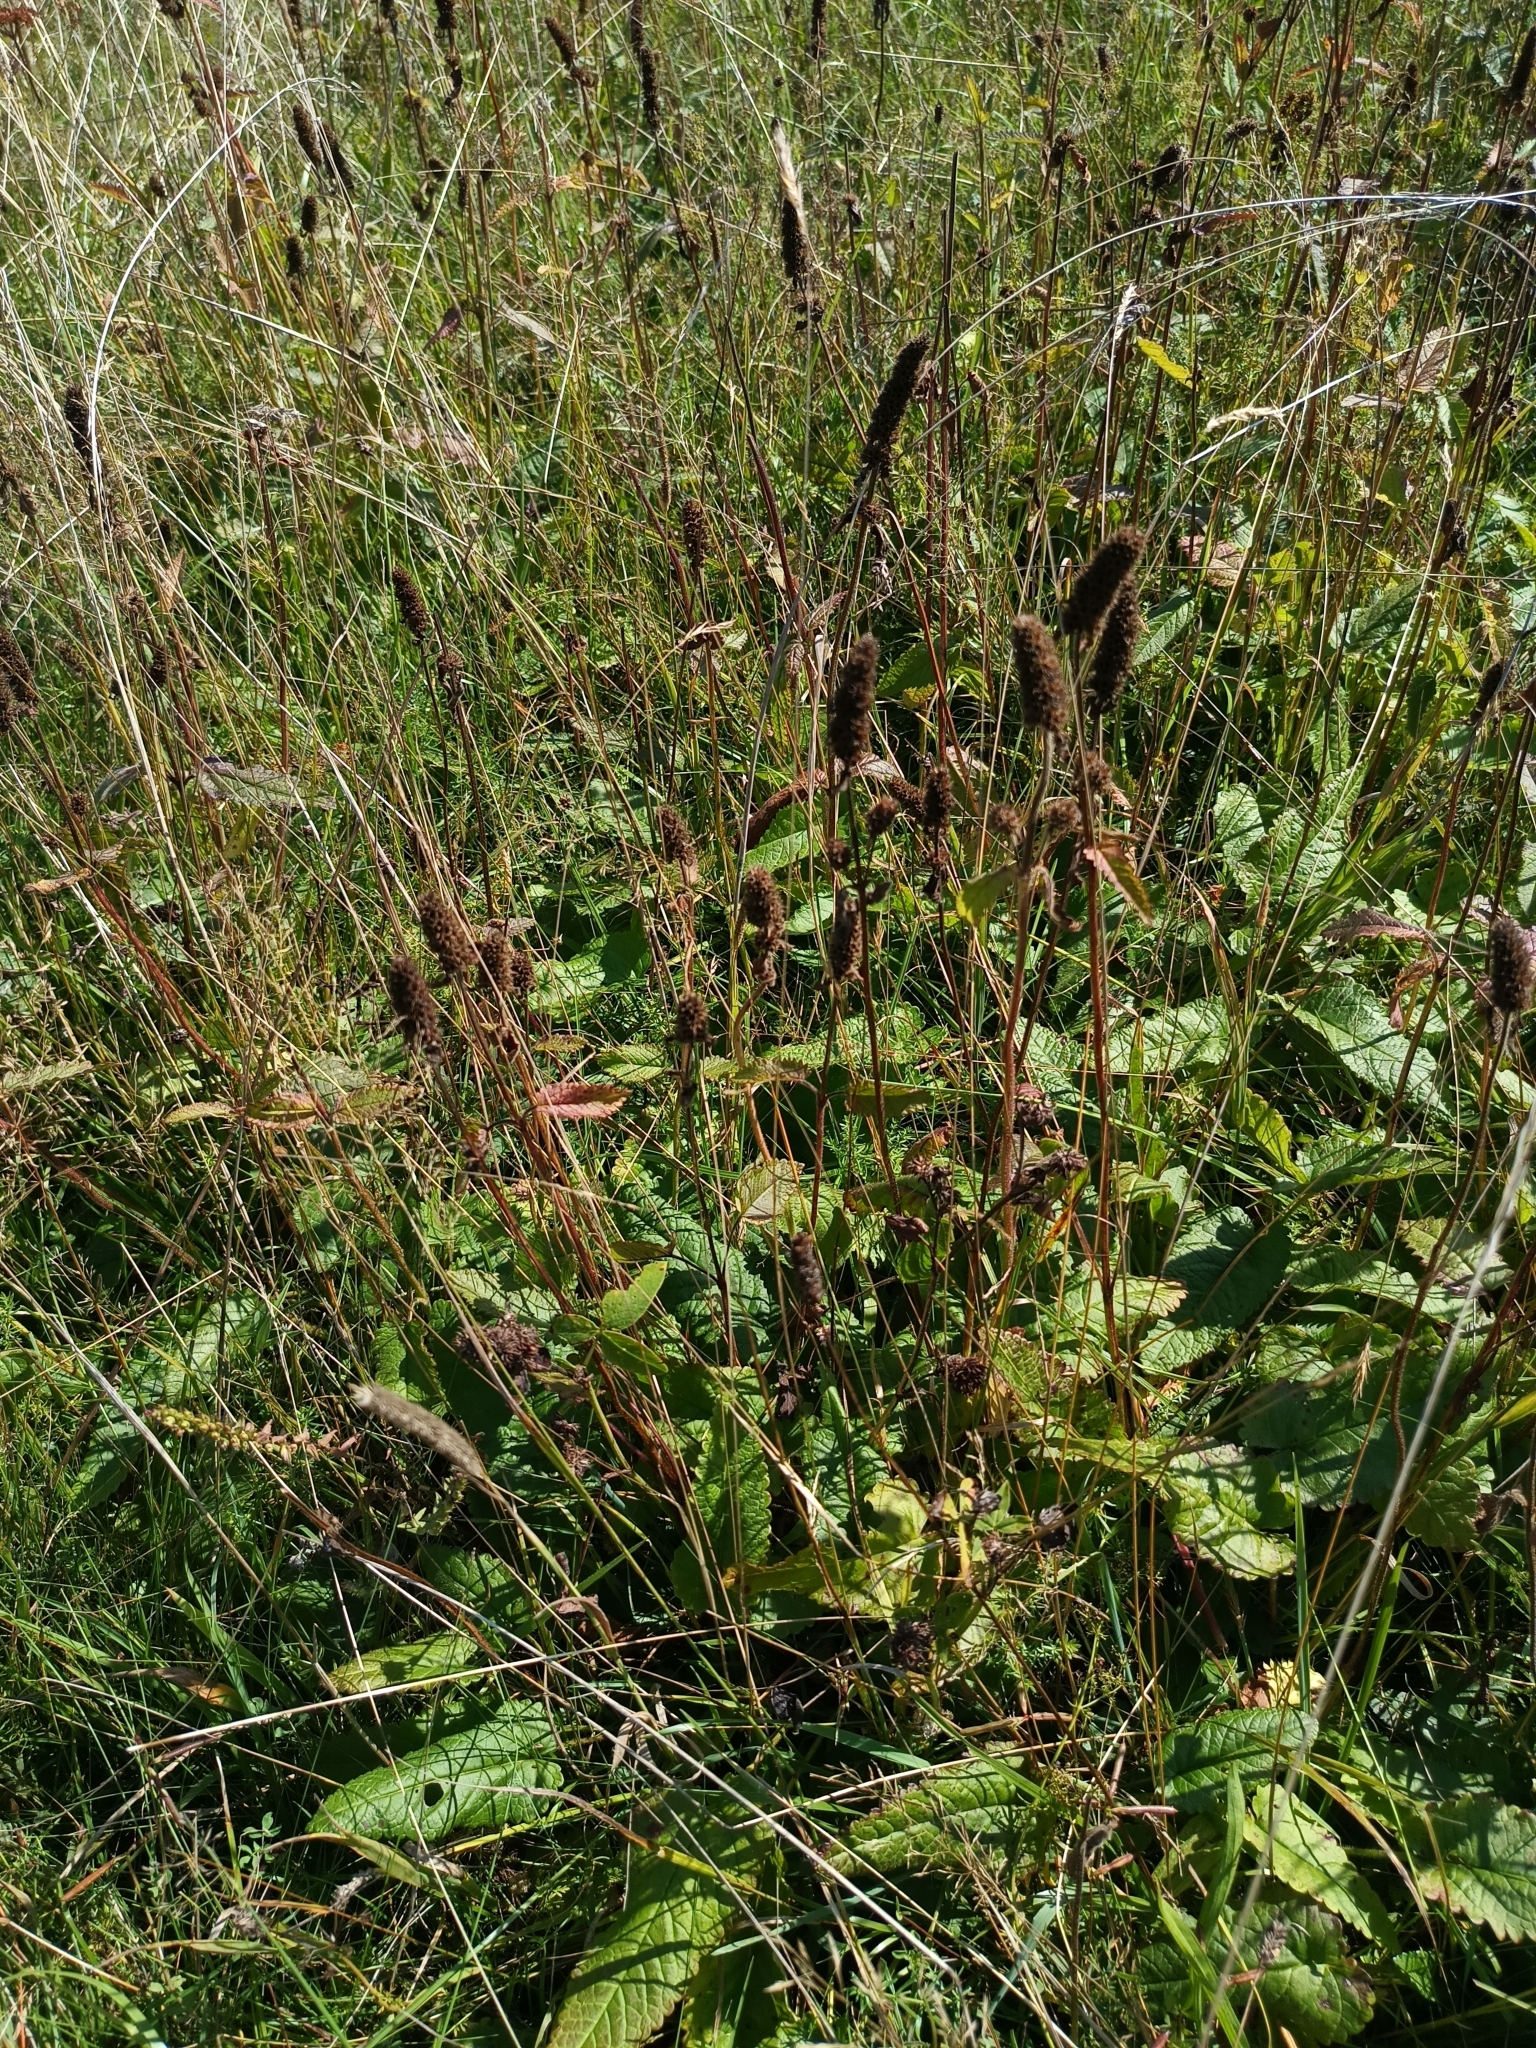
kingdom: Plantae
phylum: Tracheophyta
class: Magnoliopsida
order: Lamiales
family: Lamiaceae
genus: Betonica
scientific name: Betonica officinalis
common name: Bishop's-wort
